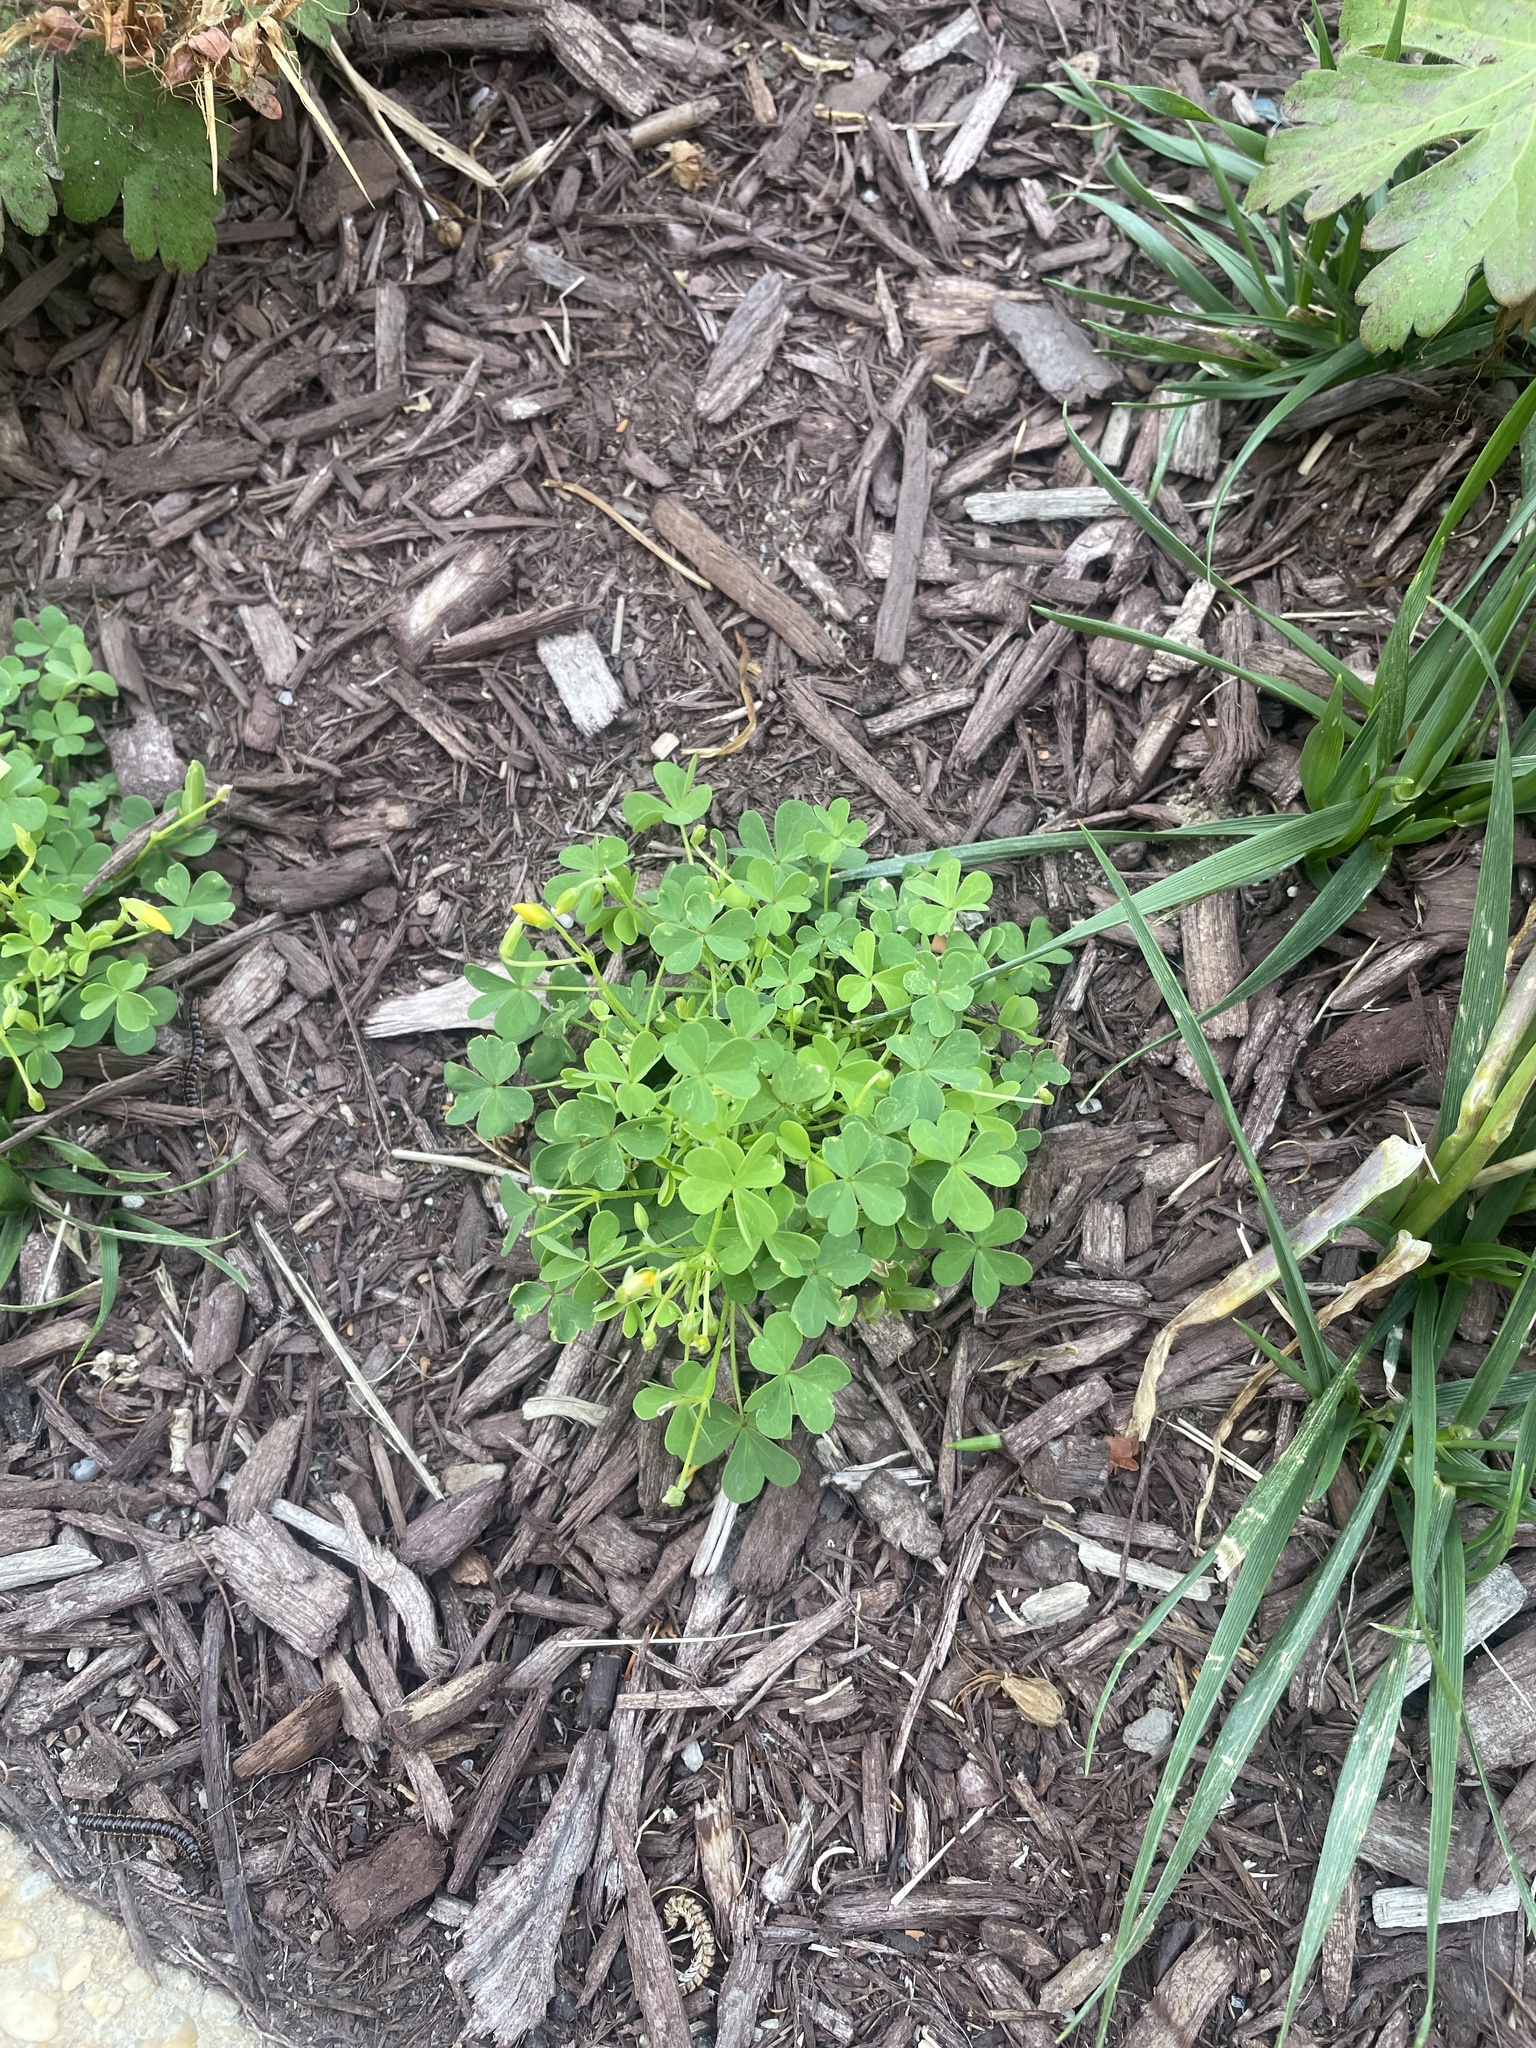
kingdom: Plantae
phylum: Tracheophyta
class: Magnoliopsida
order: Oxalidales
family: Oxalidaceae
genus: Oxalis
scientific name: Oxalis dillenii
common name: Sussex yellow-sorrel
